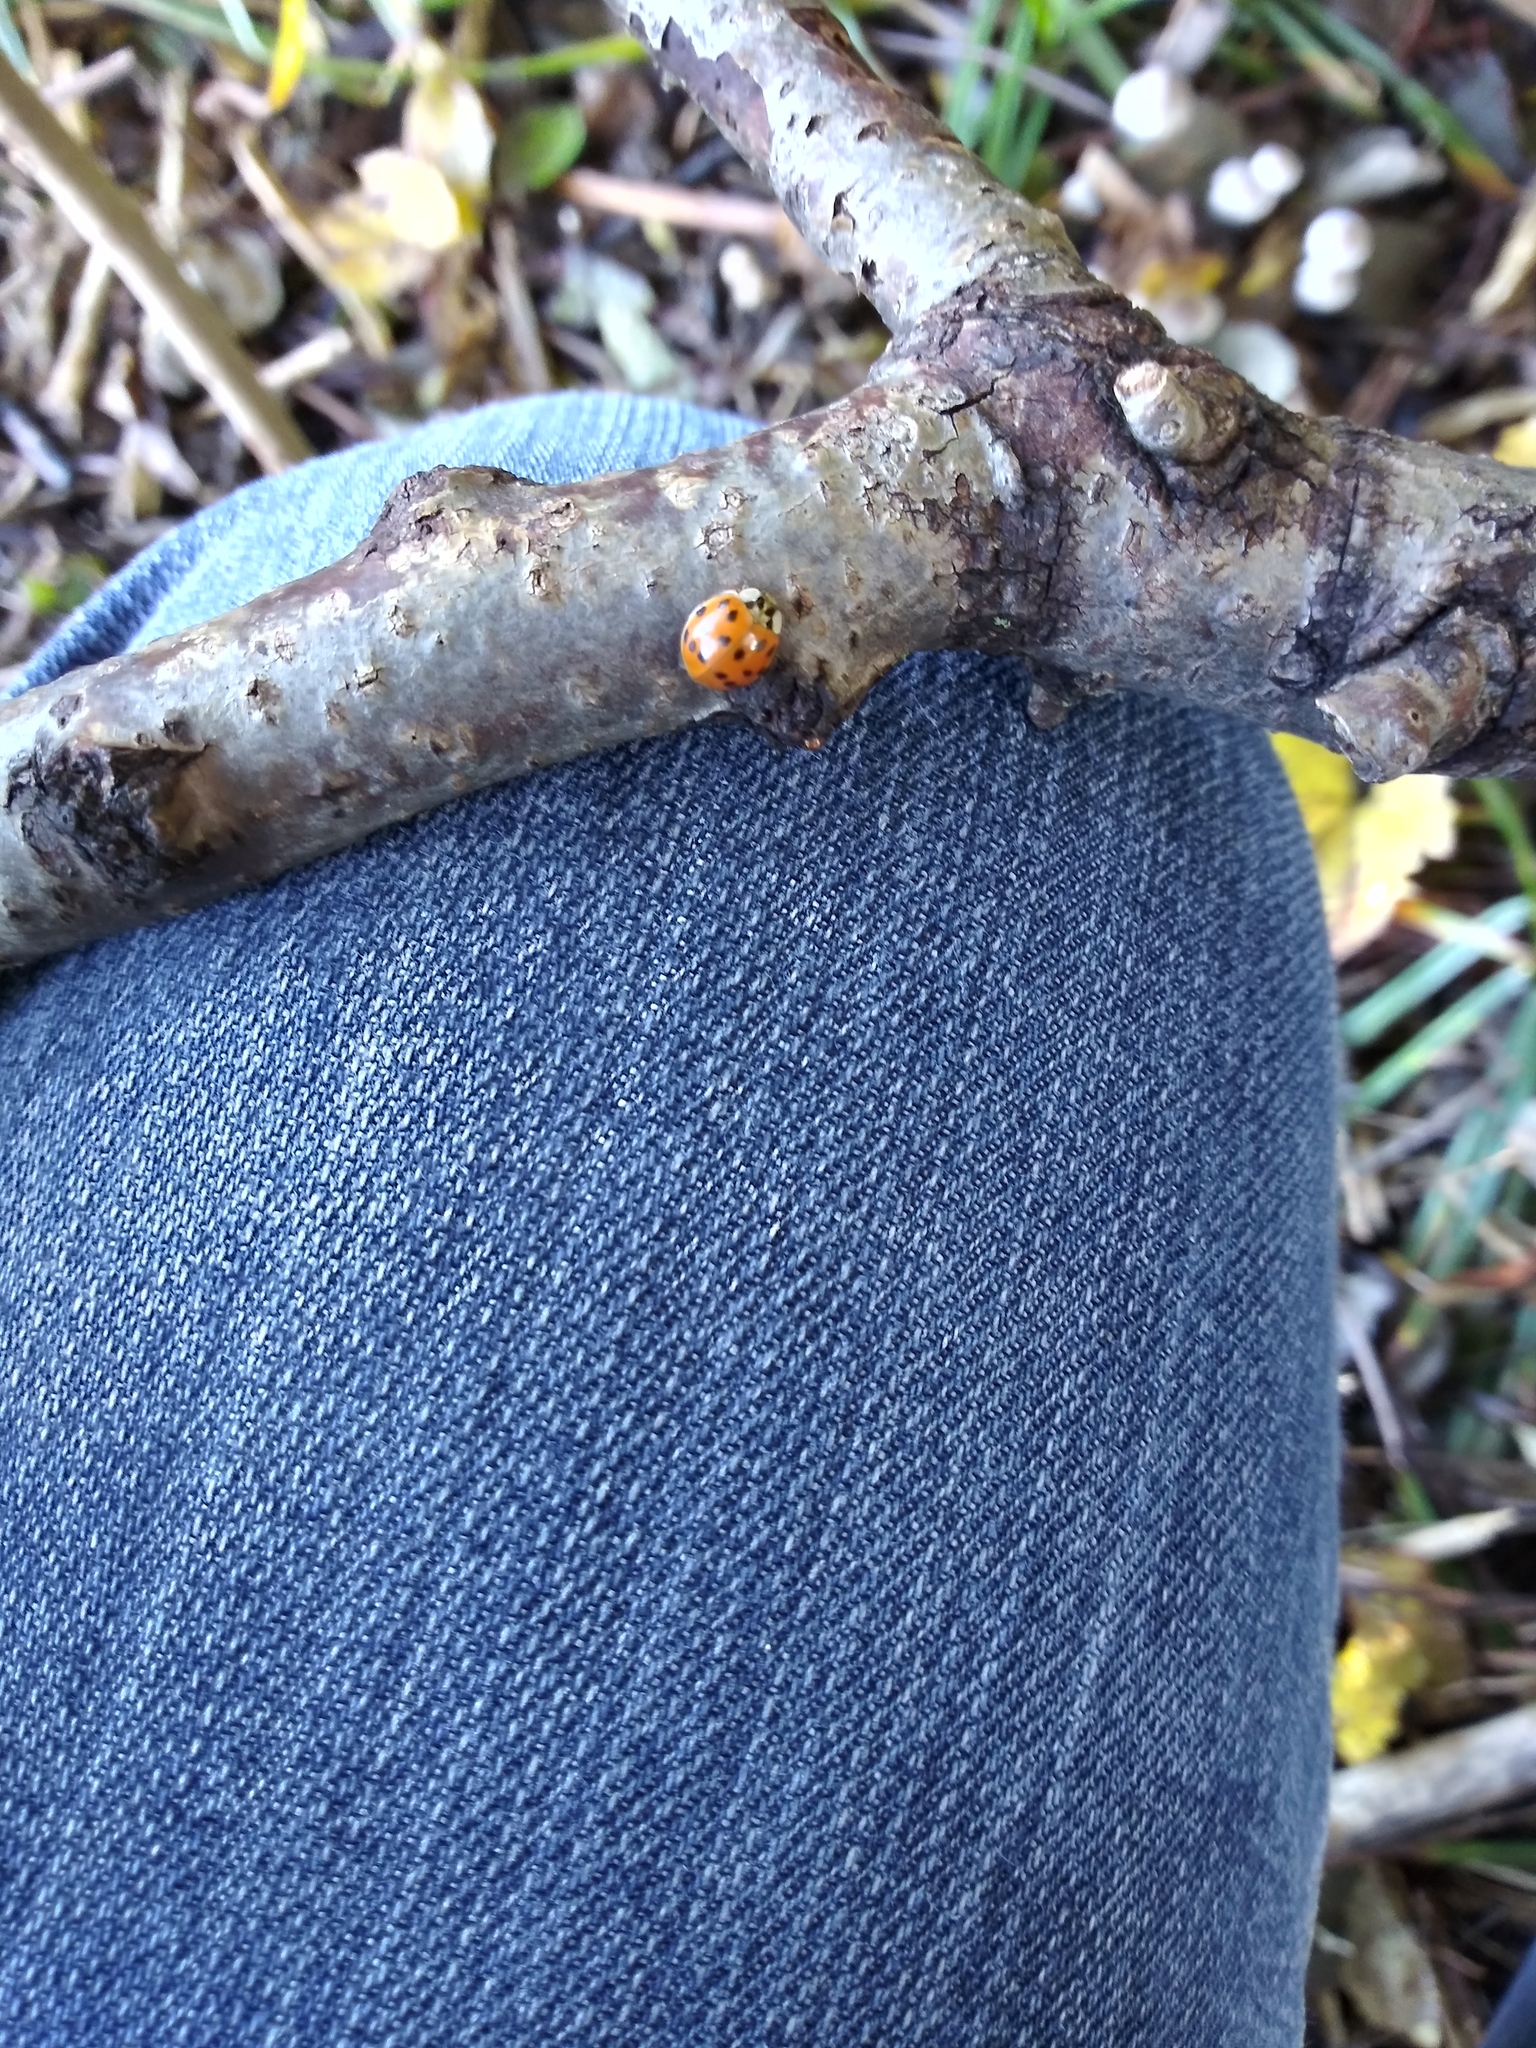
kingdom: Animalia
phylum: Arthropoda
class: Insecta
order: Coleoptera
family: Coccinellidae
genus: Harmonia
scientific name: Harmonia axyridis
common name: Harlequin ladybird
